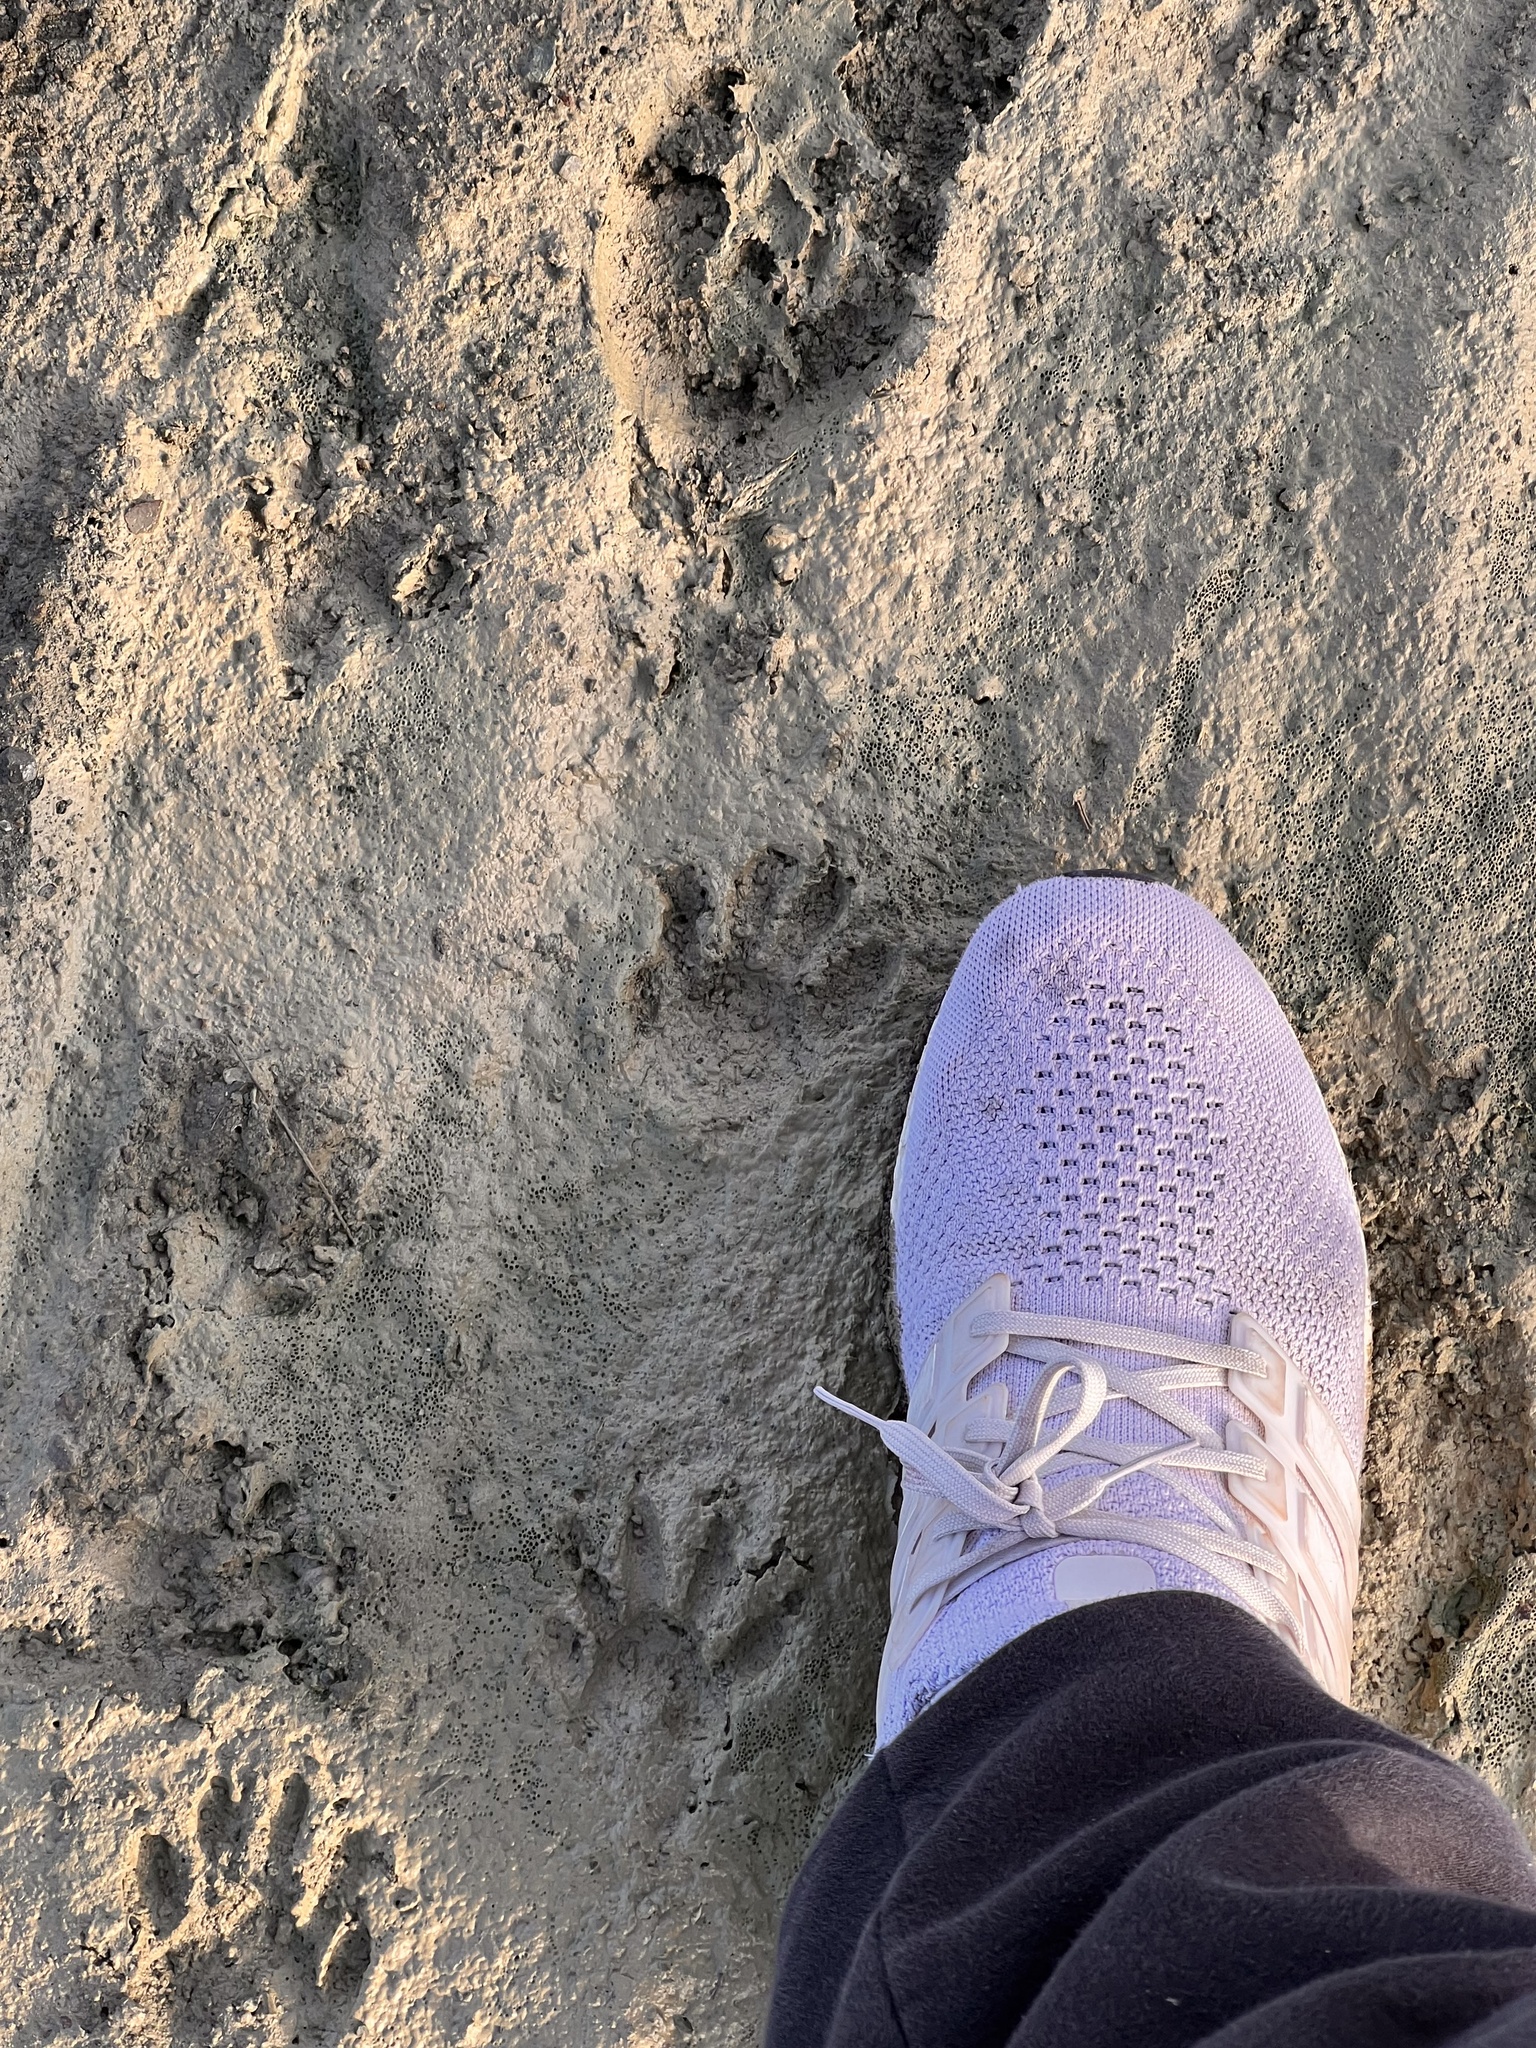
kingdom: Animalia
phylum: Chordata
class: Mammalia
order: Carnivora
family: Procyonidae
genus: Procyon
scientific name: Procyon lotor
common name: Raccoon
